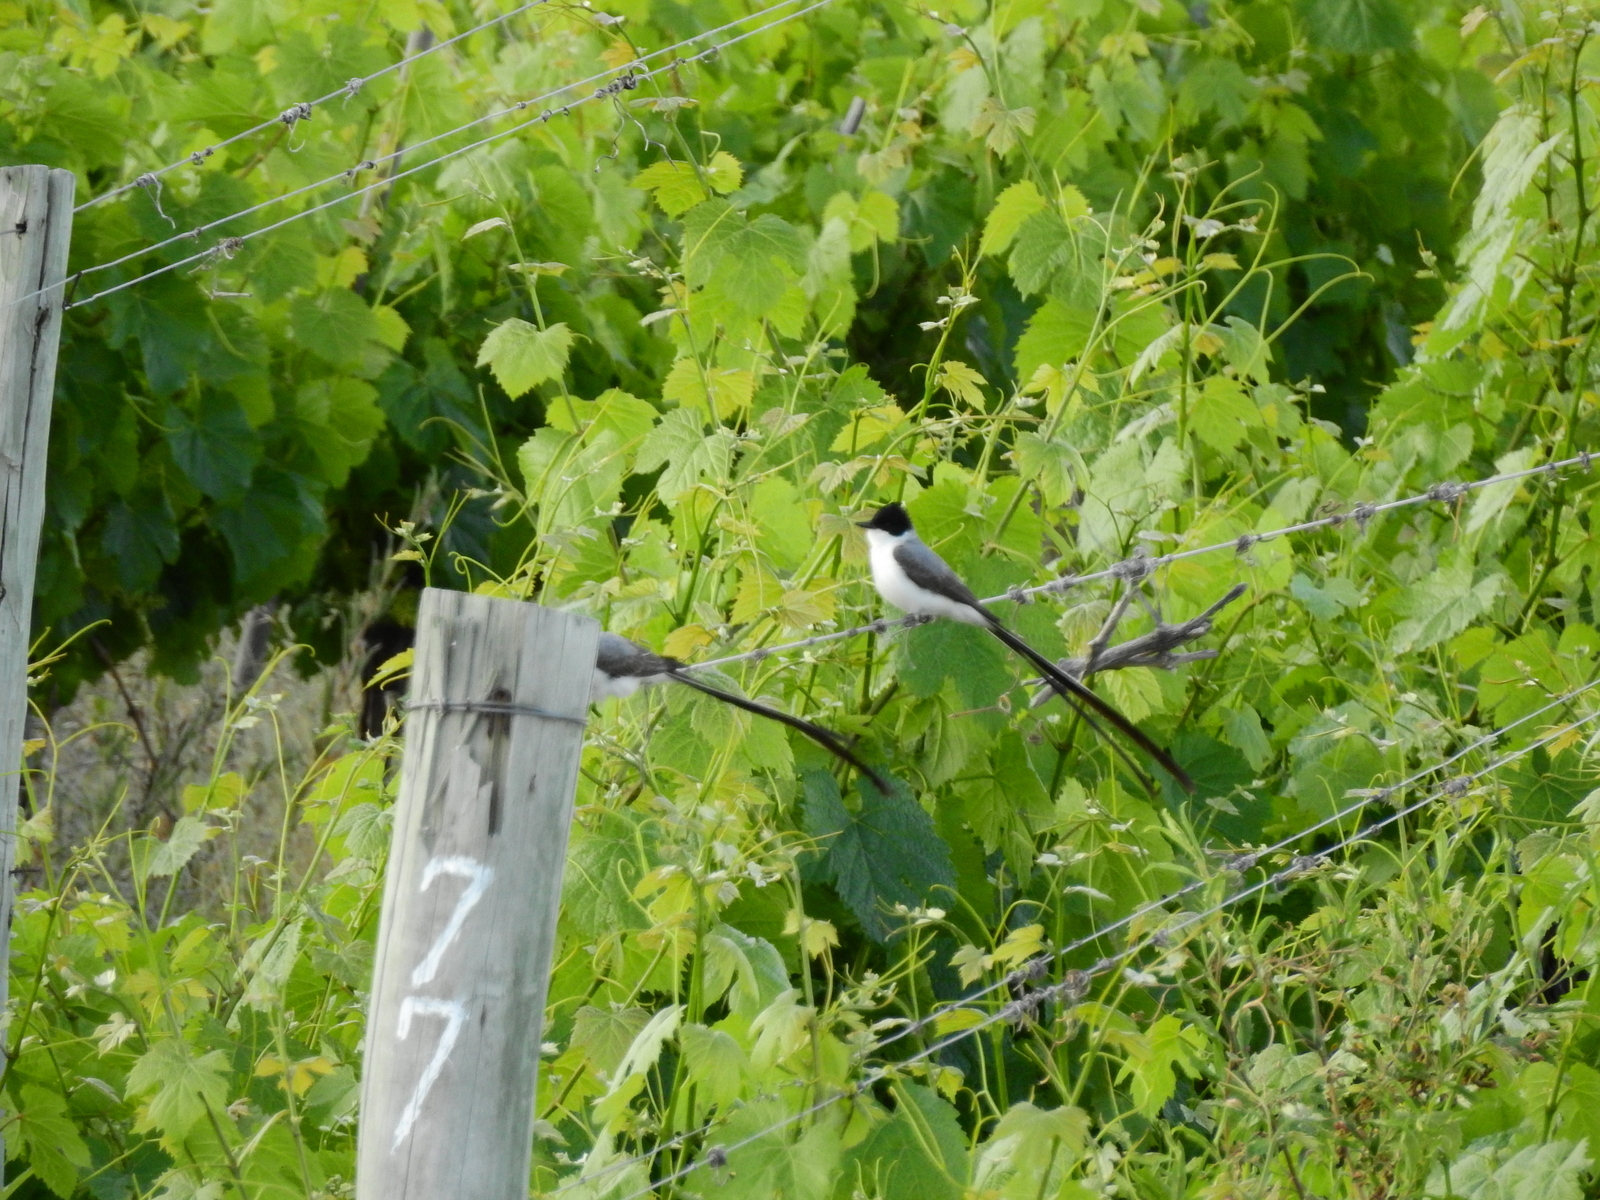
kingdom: Animalia
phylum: Chordata
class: Aves
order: Passeriformes
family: Tyrannidae
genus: Tyrannus
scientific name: Tyrannus savana
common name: Fork-tailed flycatcher
